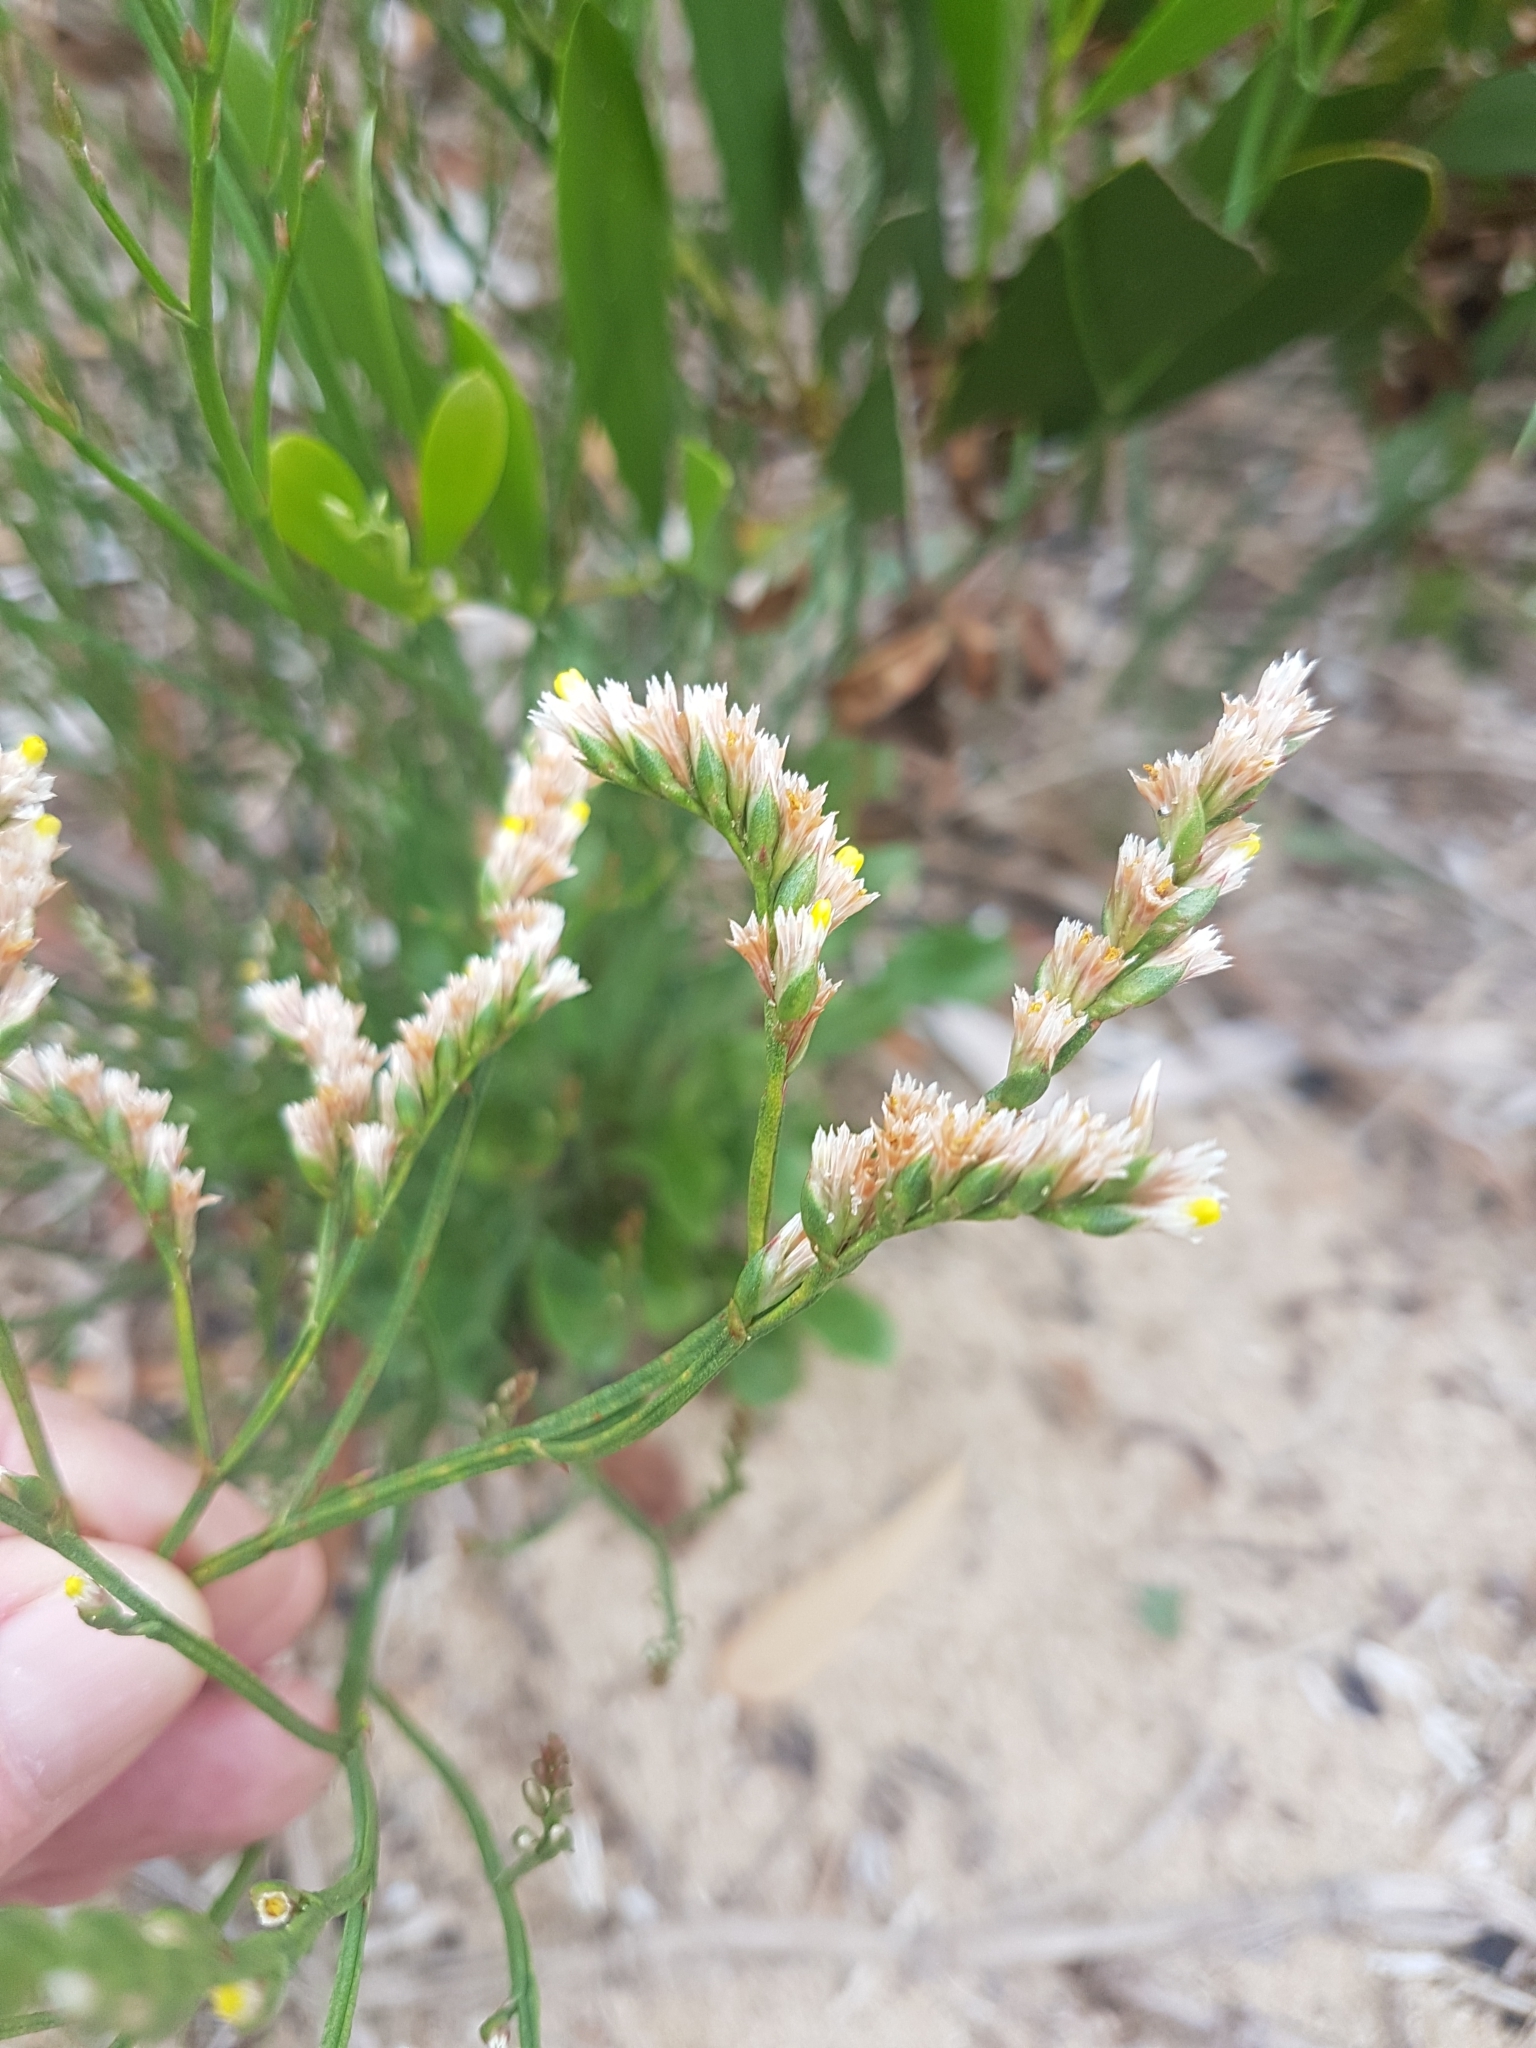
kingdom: Plantae
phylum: Tracheophyta
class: Magnoliopsida
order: Caryophyllales
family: Plumbaginaceae
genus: Limonium
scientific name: Limonium australe
